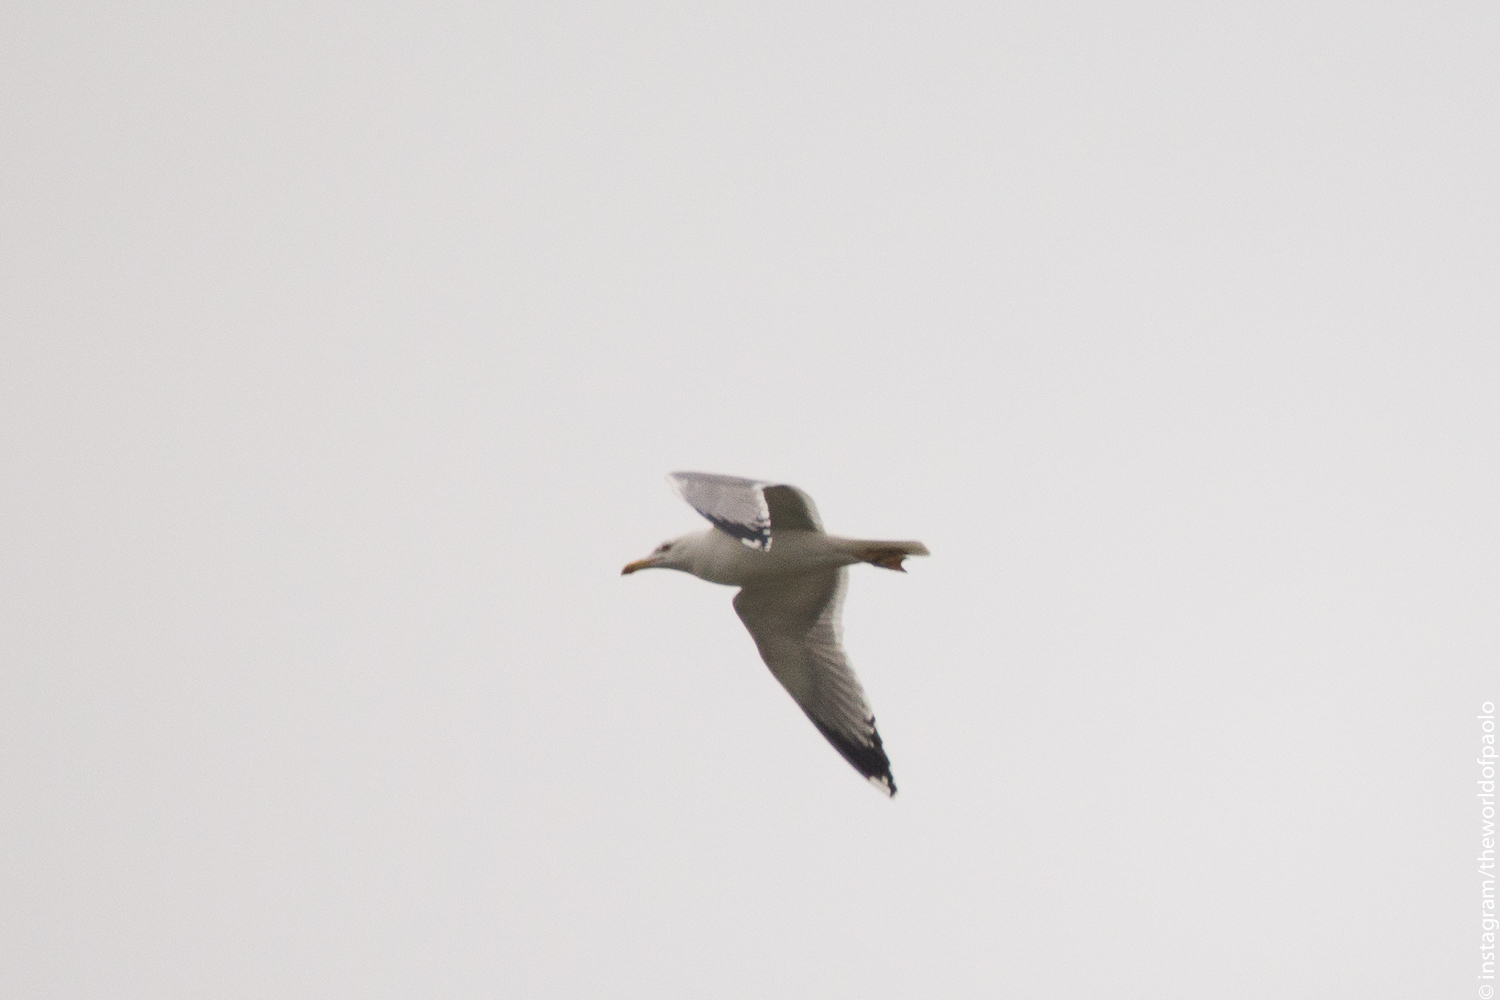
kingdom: Animalia
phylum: Chordata
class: Aves
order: Charadriiformes
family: Laridae
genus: Larus
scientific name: Larus argentatus
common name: Herring gull
